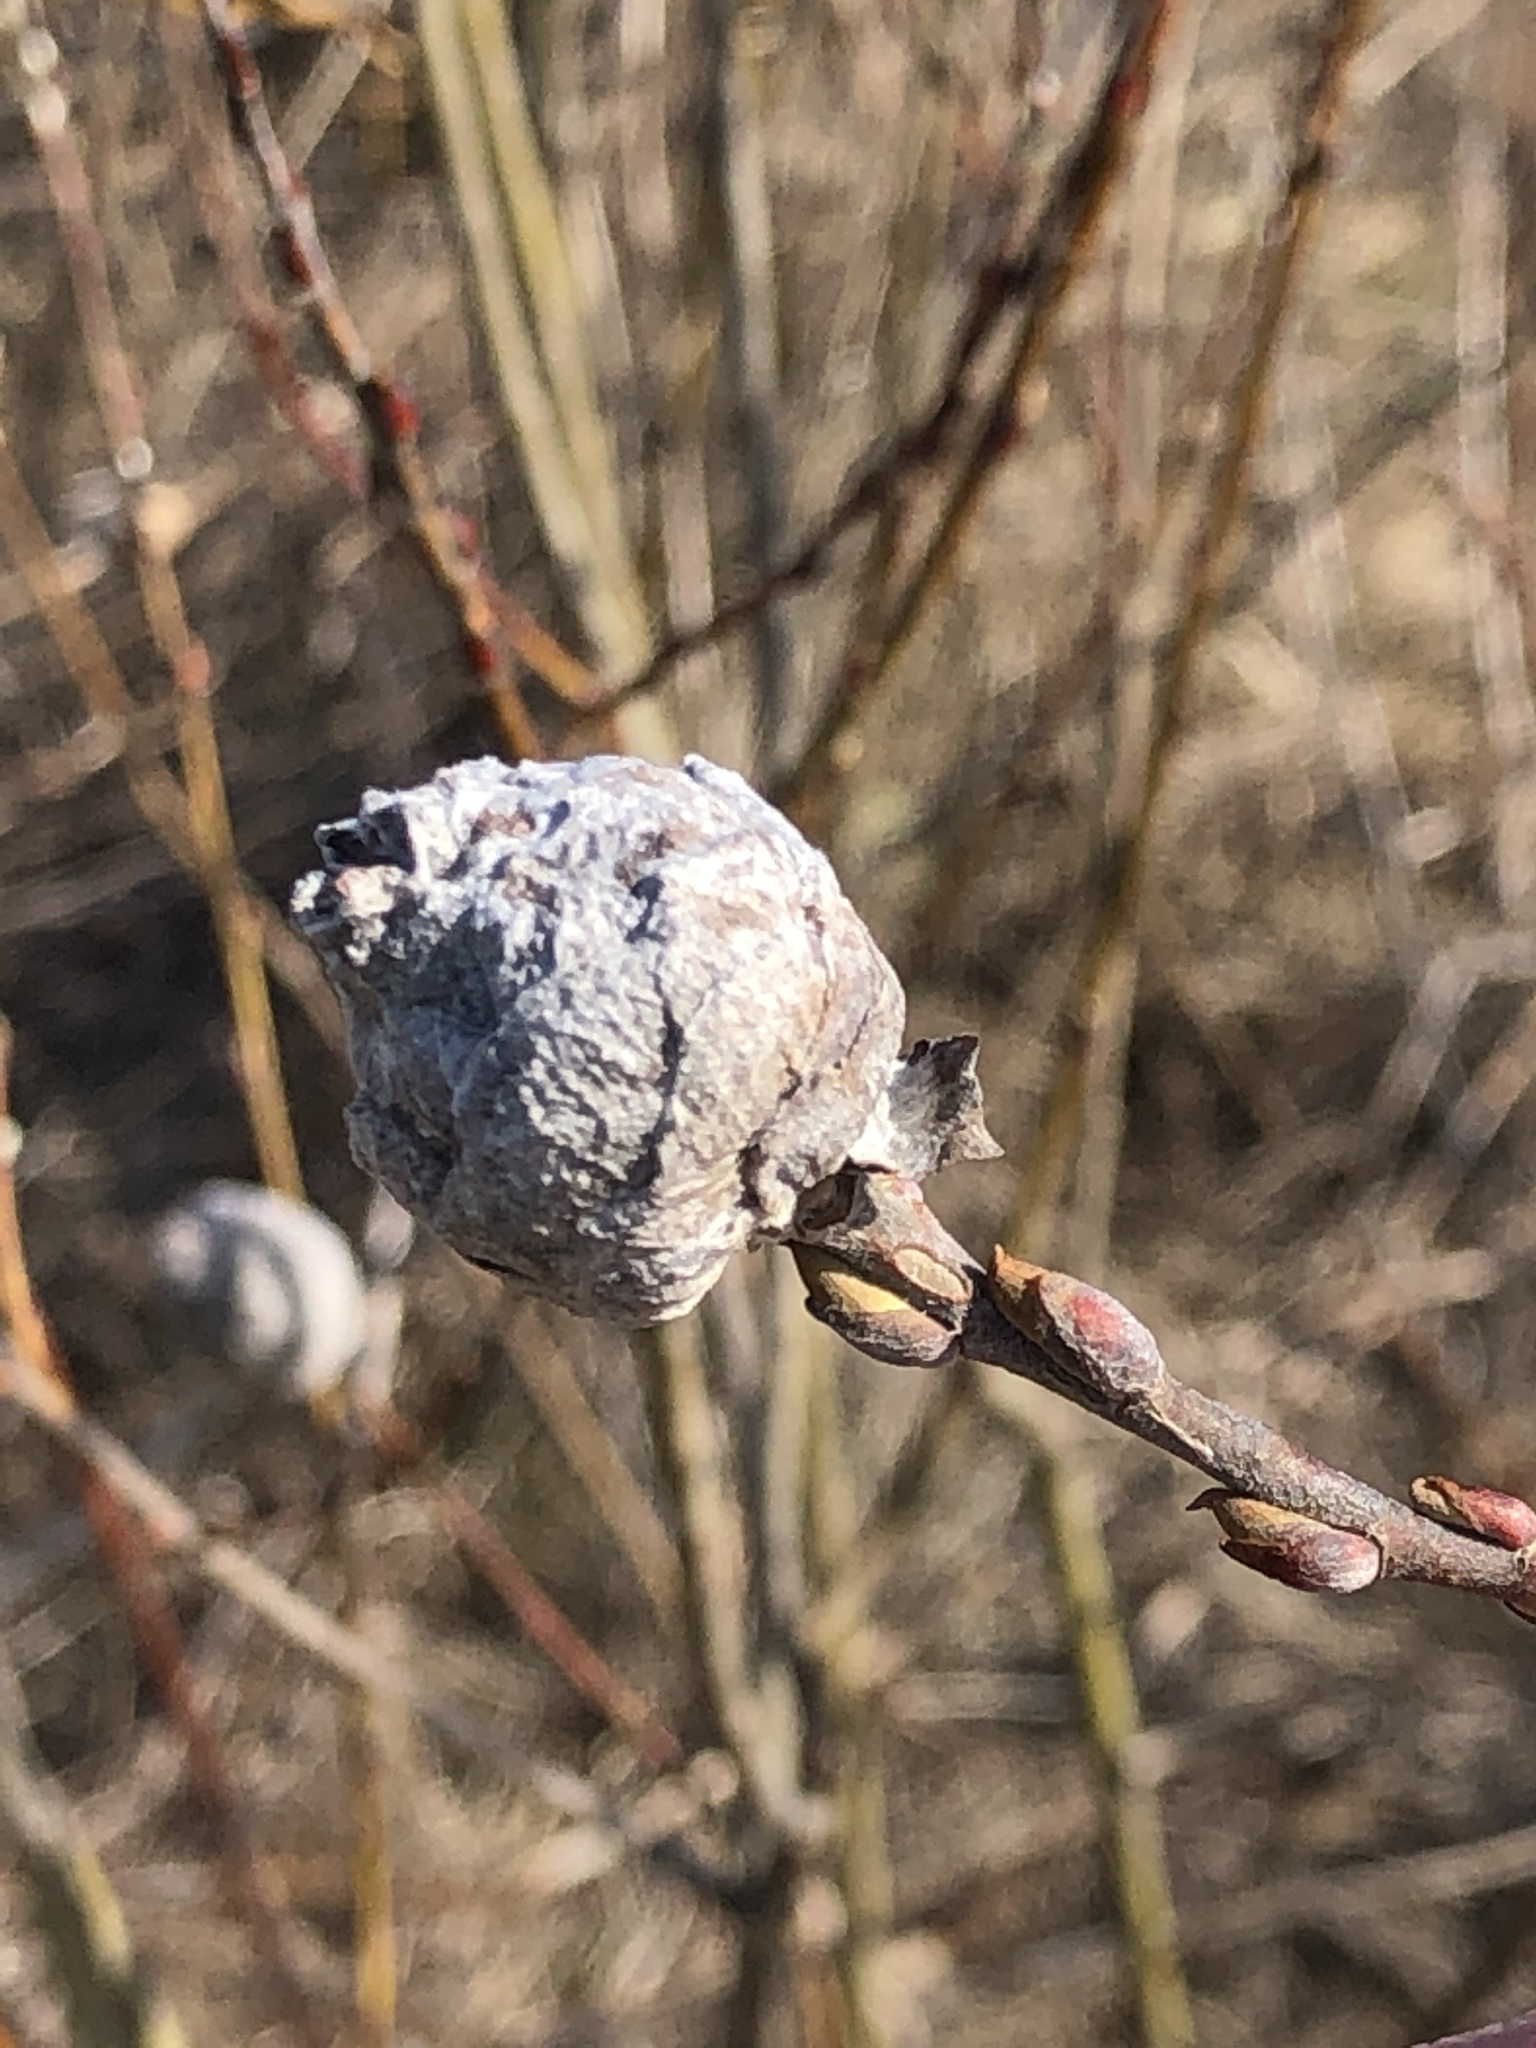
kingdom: Animalia
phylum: Arthropoda
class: Insecta
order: Diptera
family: Cecidomyiidae
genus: Rabdophaga
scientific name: Rabdophaga strobiloides
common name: Willow pinecone gall midge
